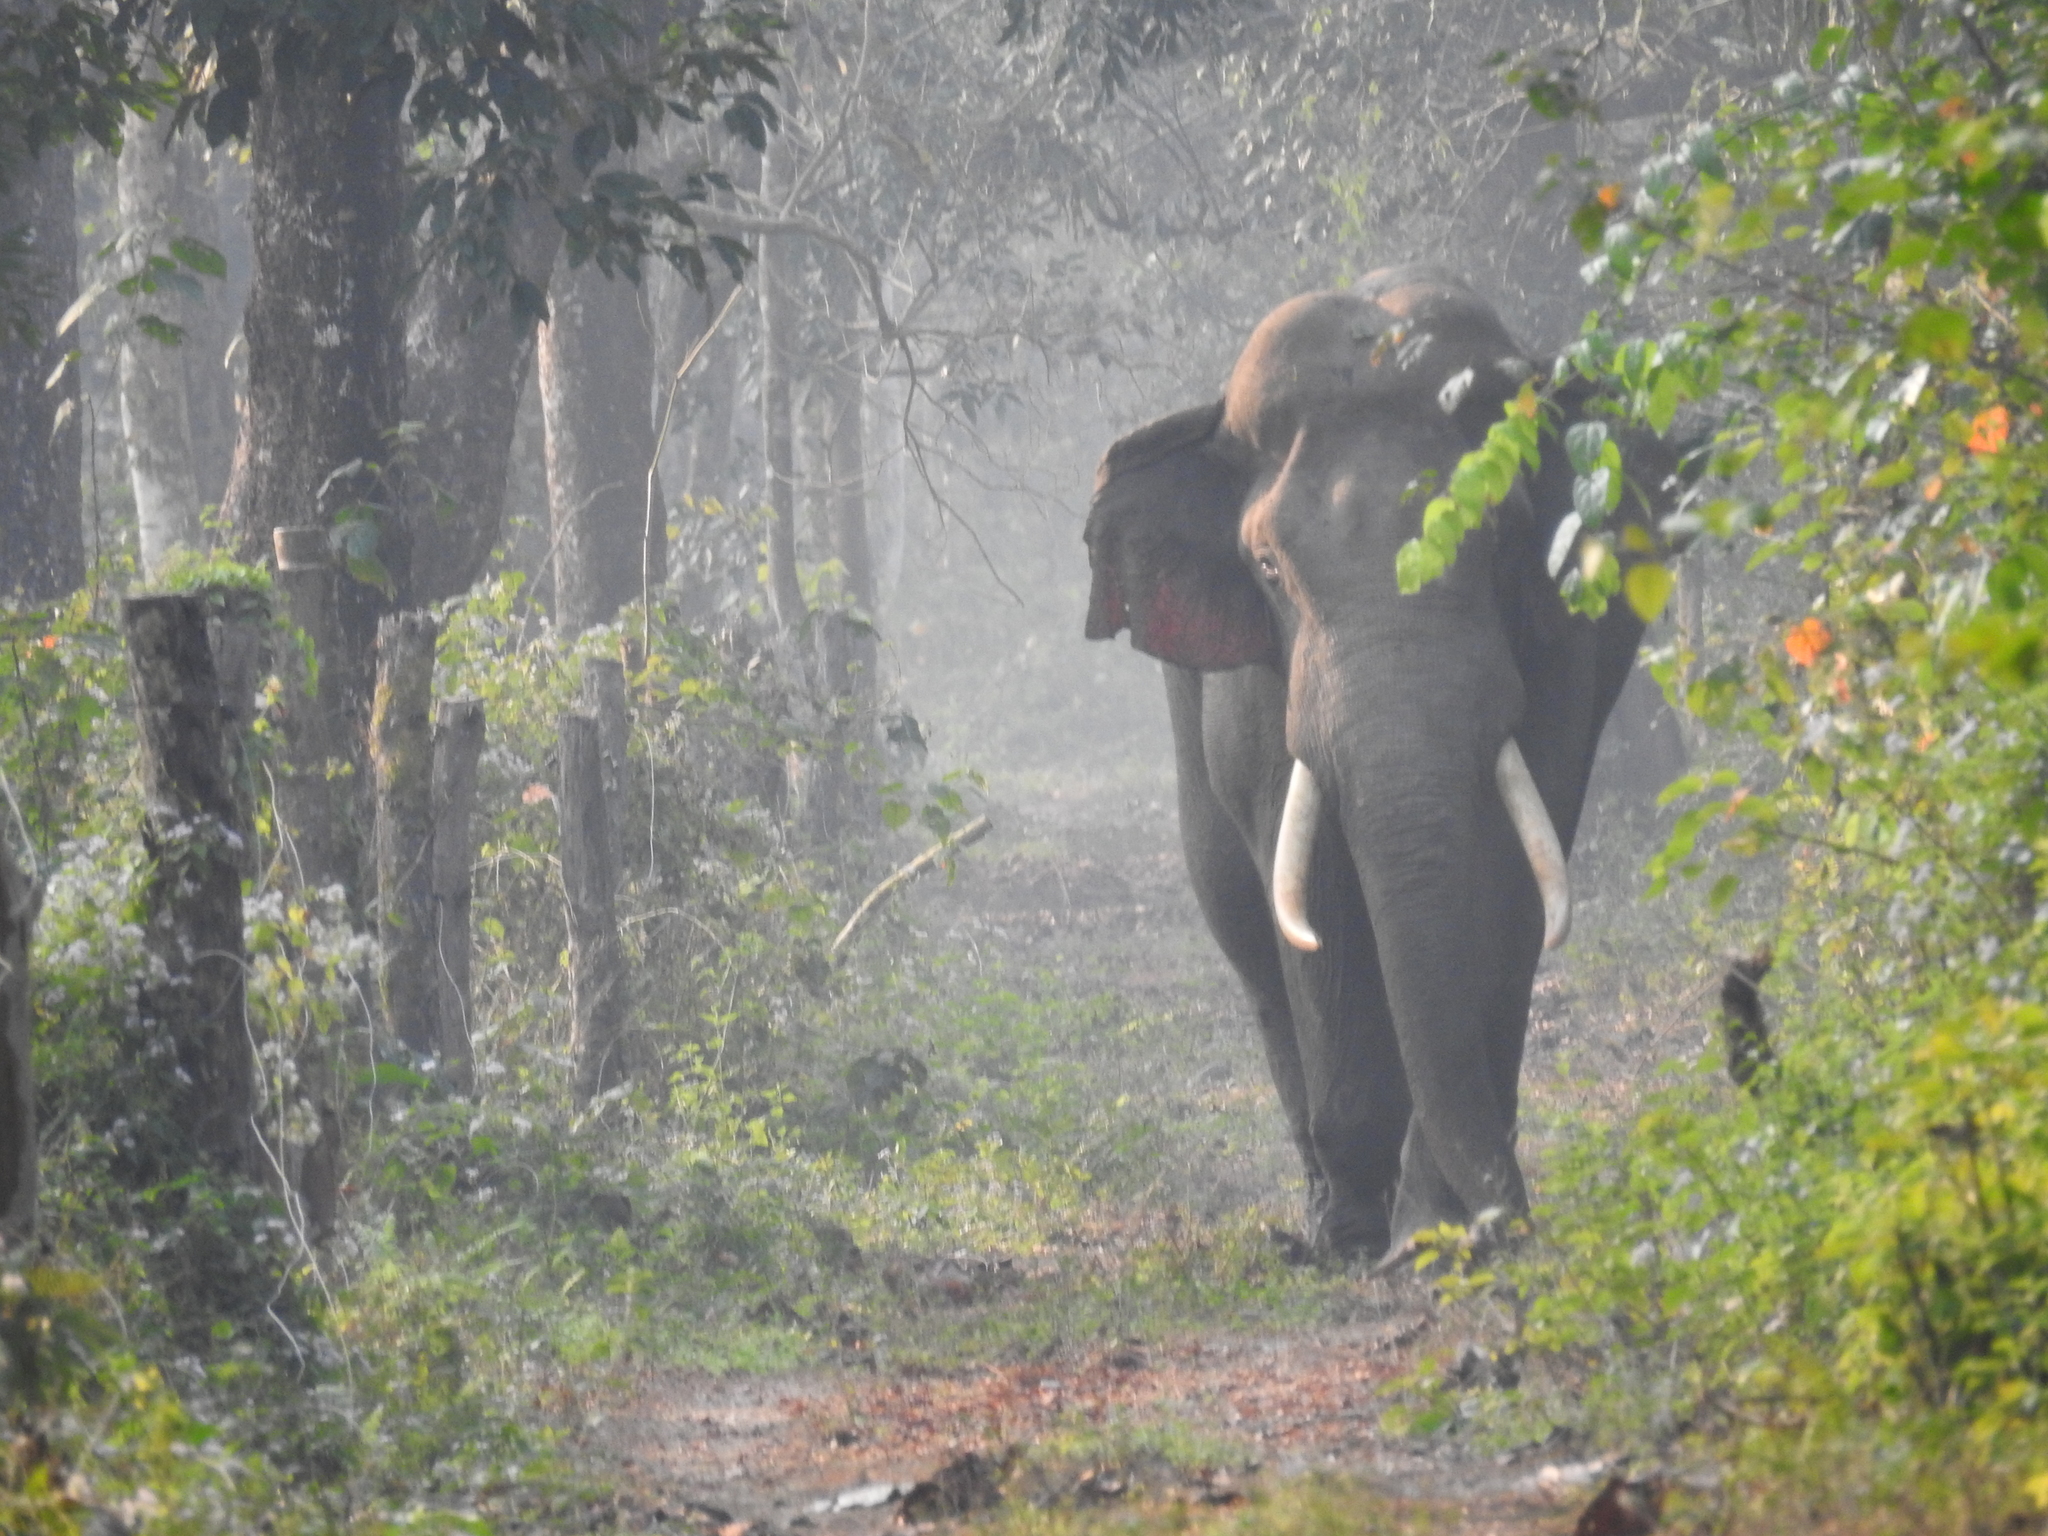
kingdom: Animalia
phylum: Chordata
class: Mammalia
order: Proboscidea
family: Elephantidae
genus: Elephas
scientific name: Elephas maximus
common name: Asian elephant
